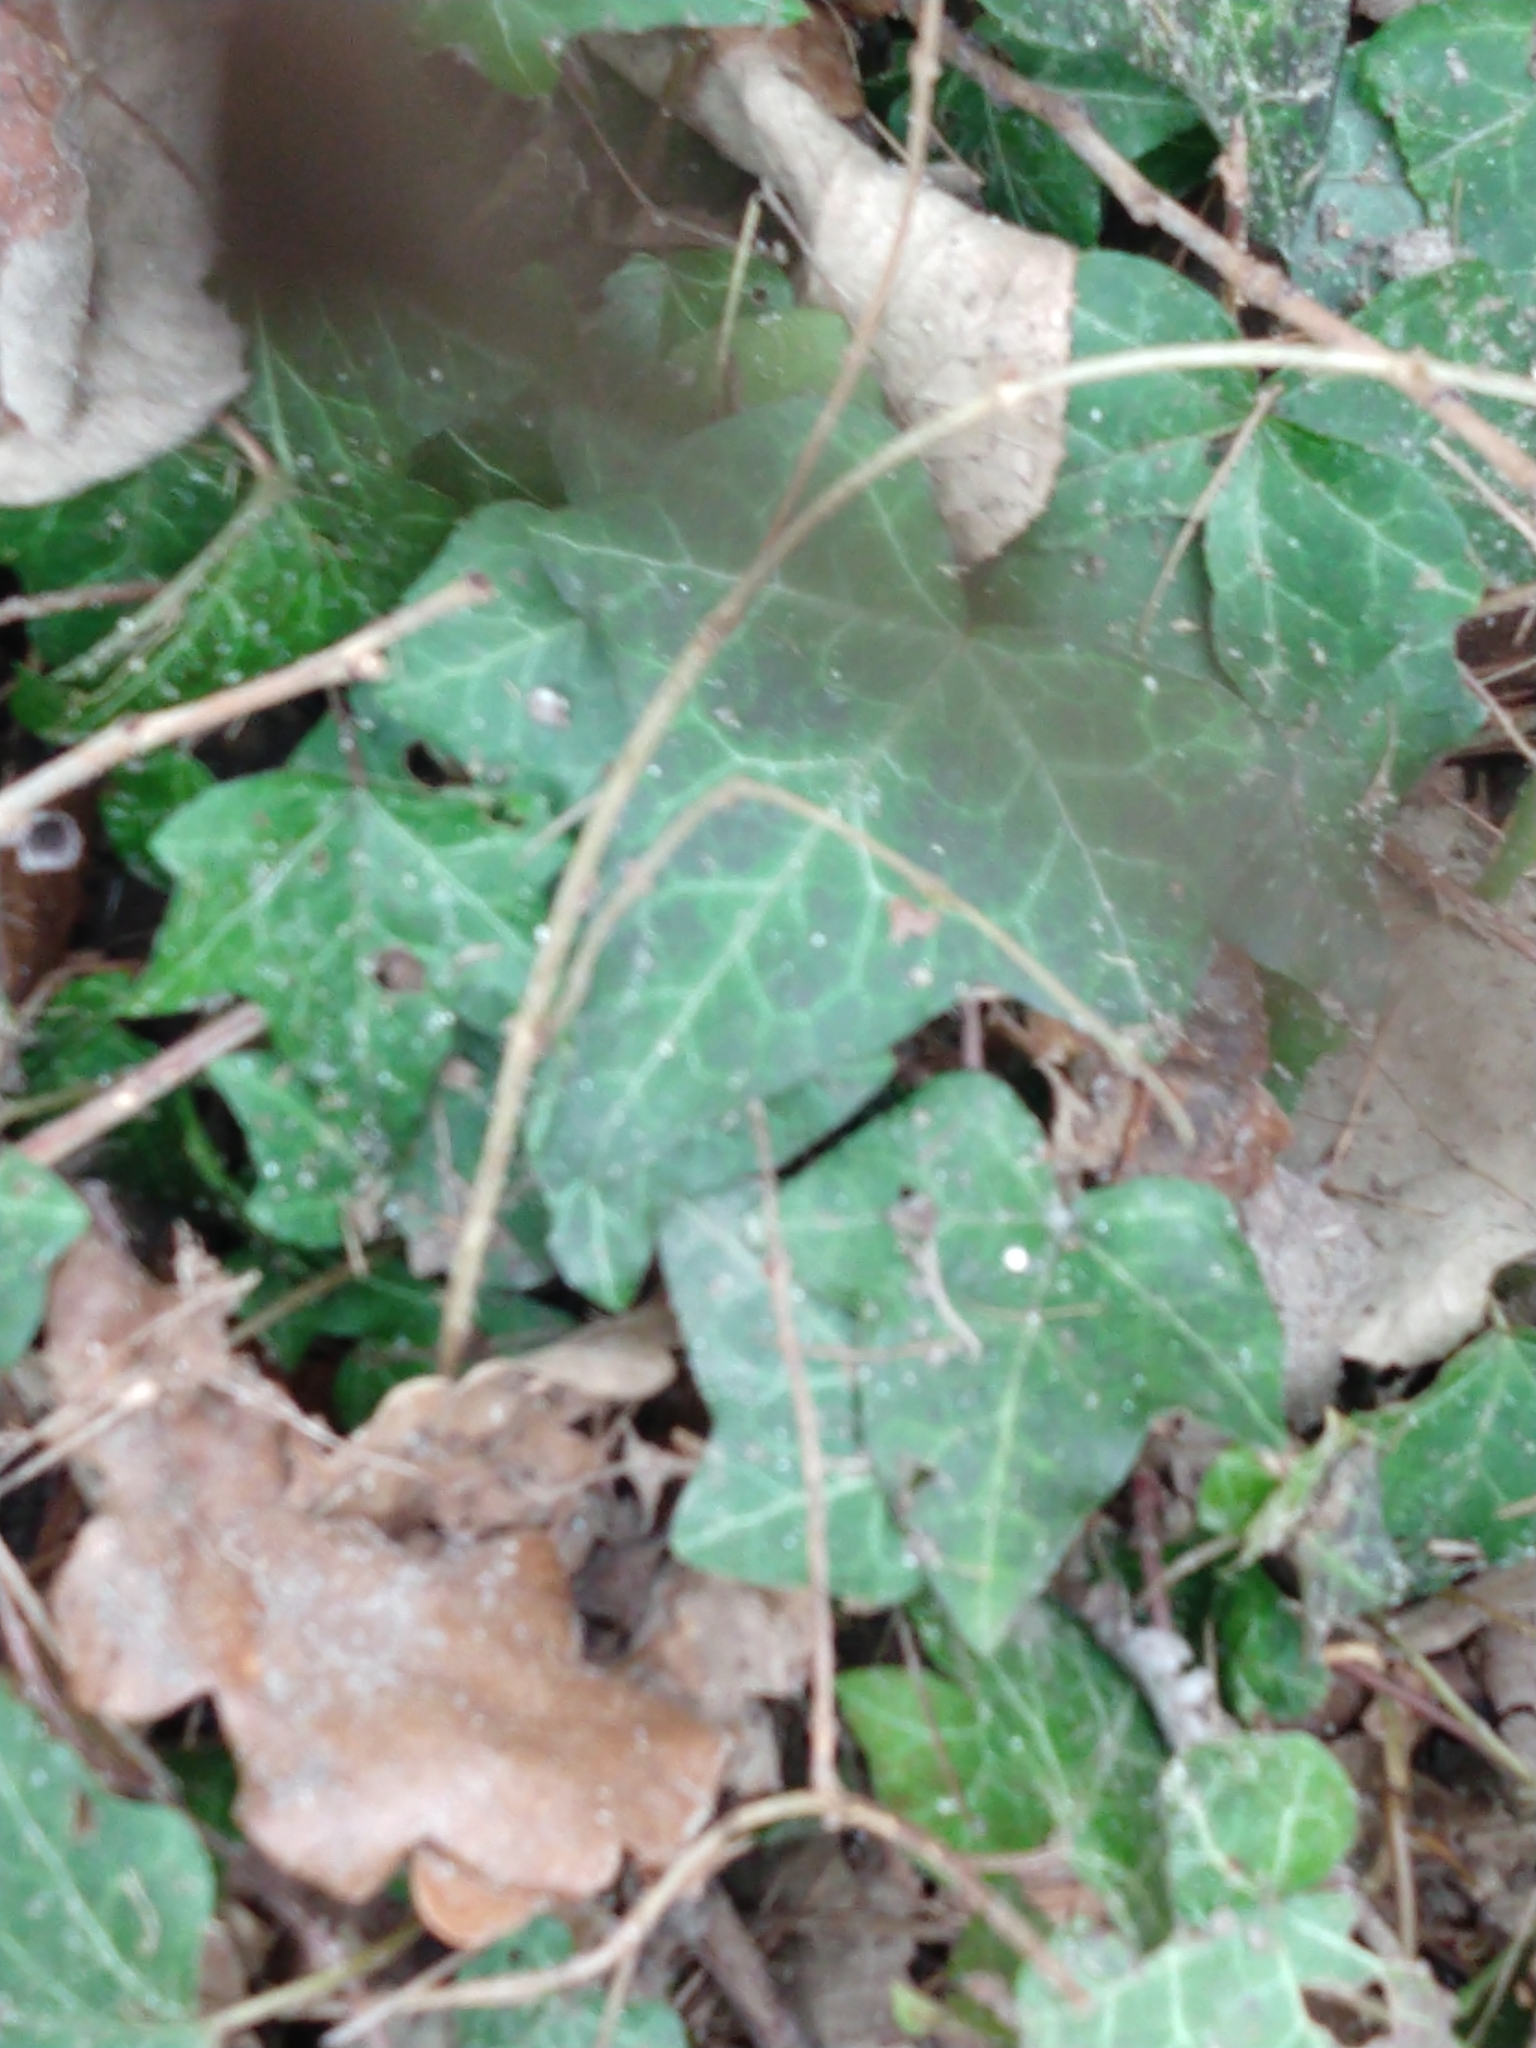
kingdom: Plantae
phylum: Tracheophyta
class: Magnoliopsida
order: Apiales
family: Araliaceae
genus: Hedera
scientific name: Hedera helix
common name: Ivy
